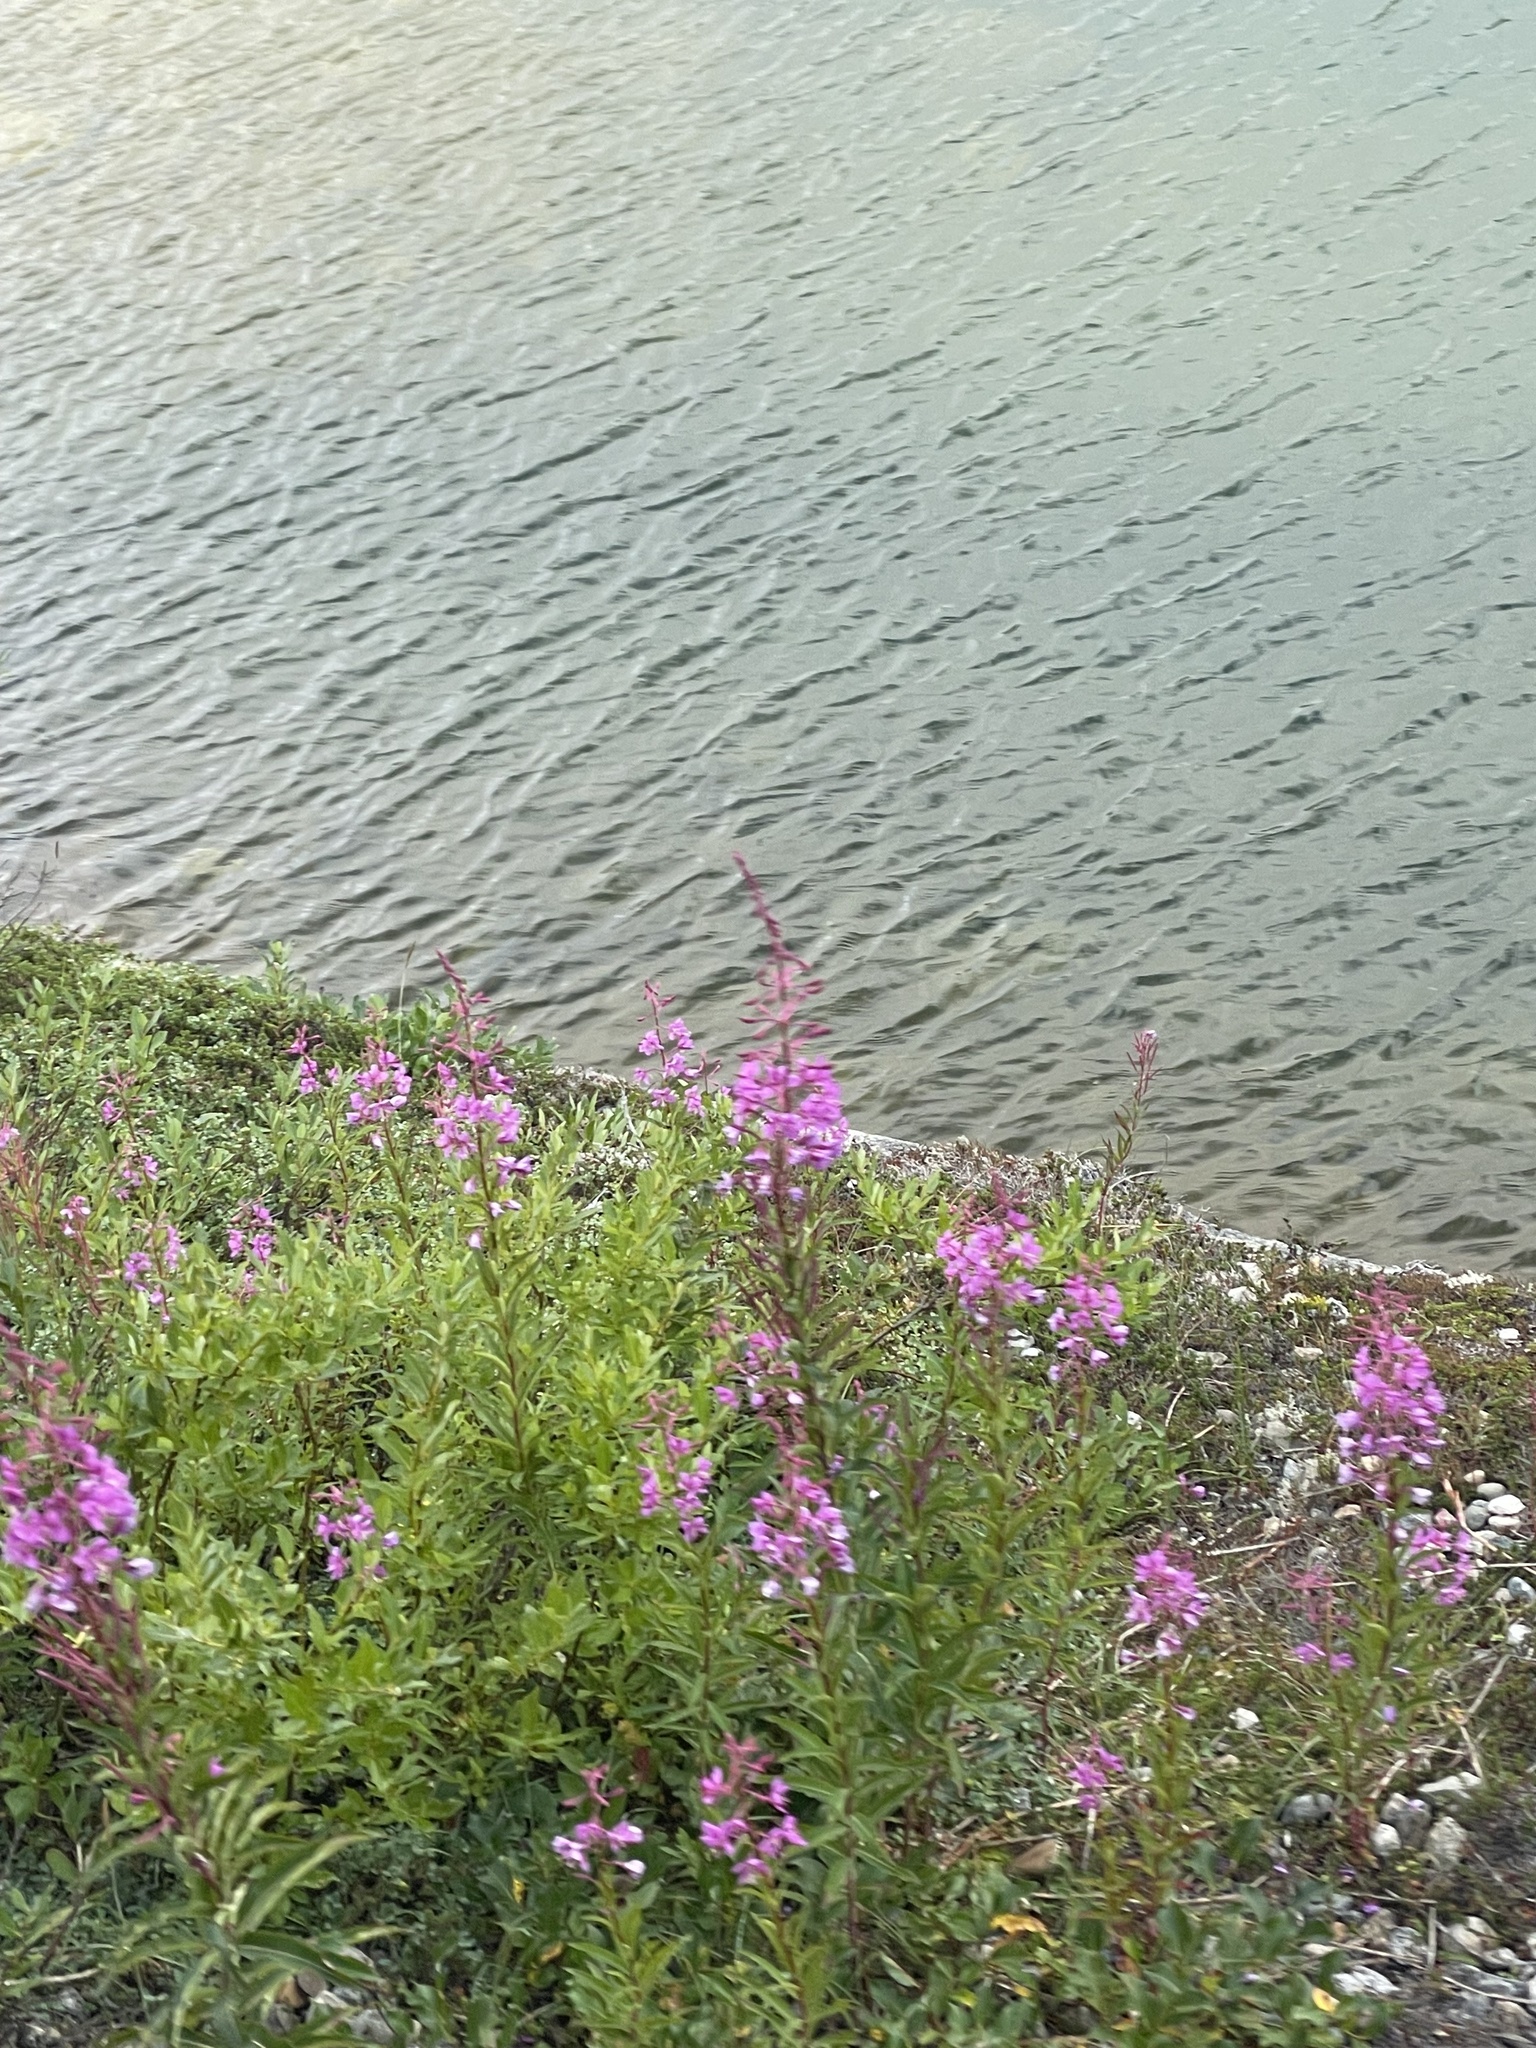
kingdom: Plantae
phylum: Tracheophyta
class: Magnoliopsida
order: Myrtales
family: Onagraceae
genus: Chamaenerion
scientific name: Chamaenerion angustifolium
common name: Fireweed
